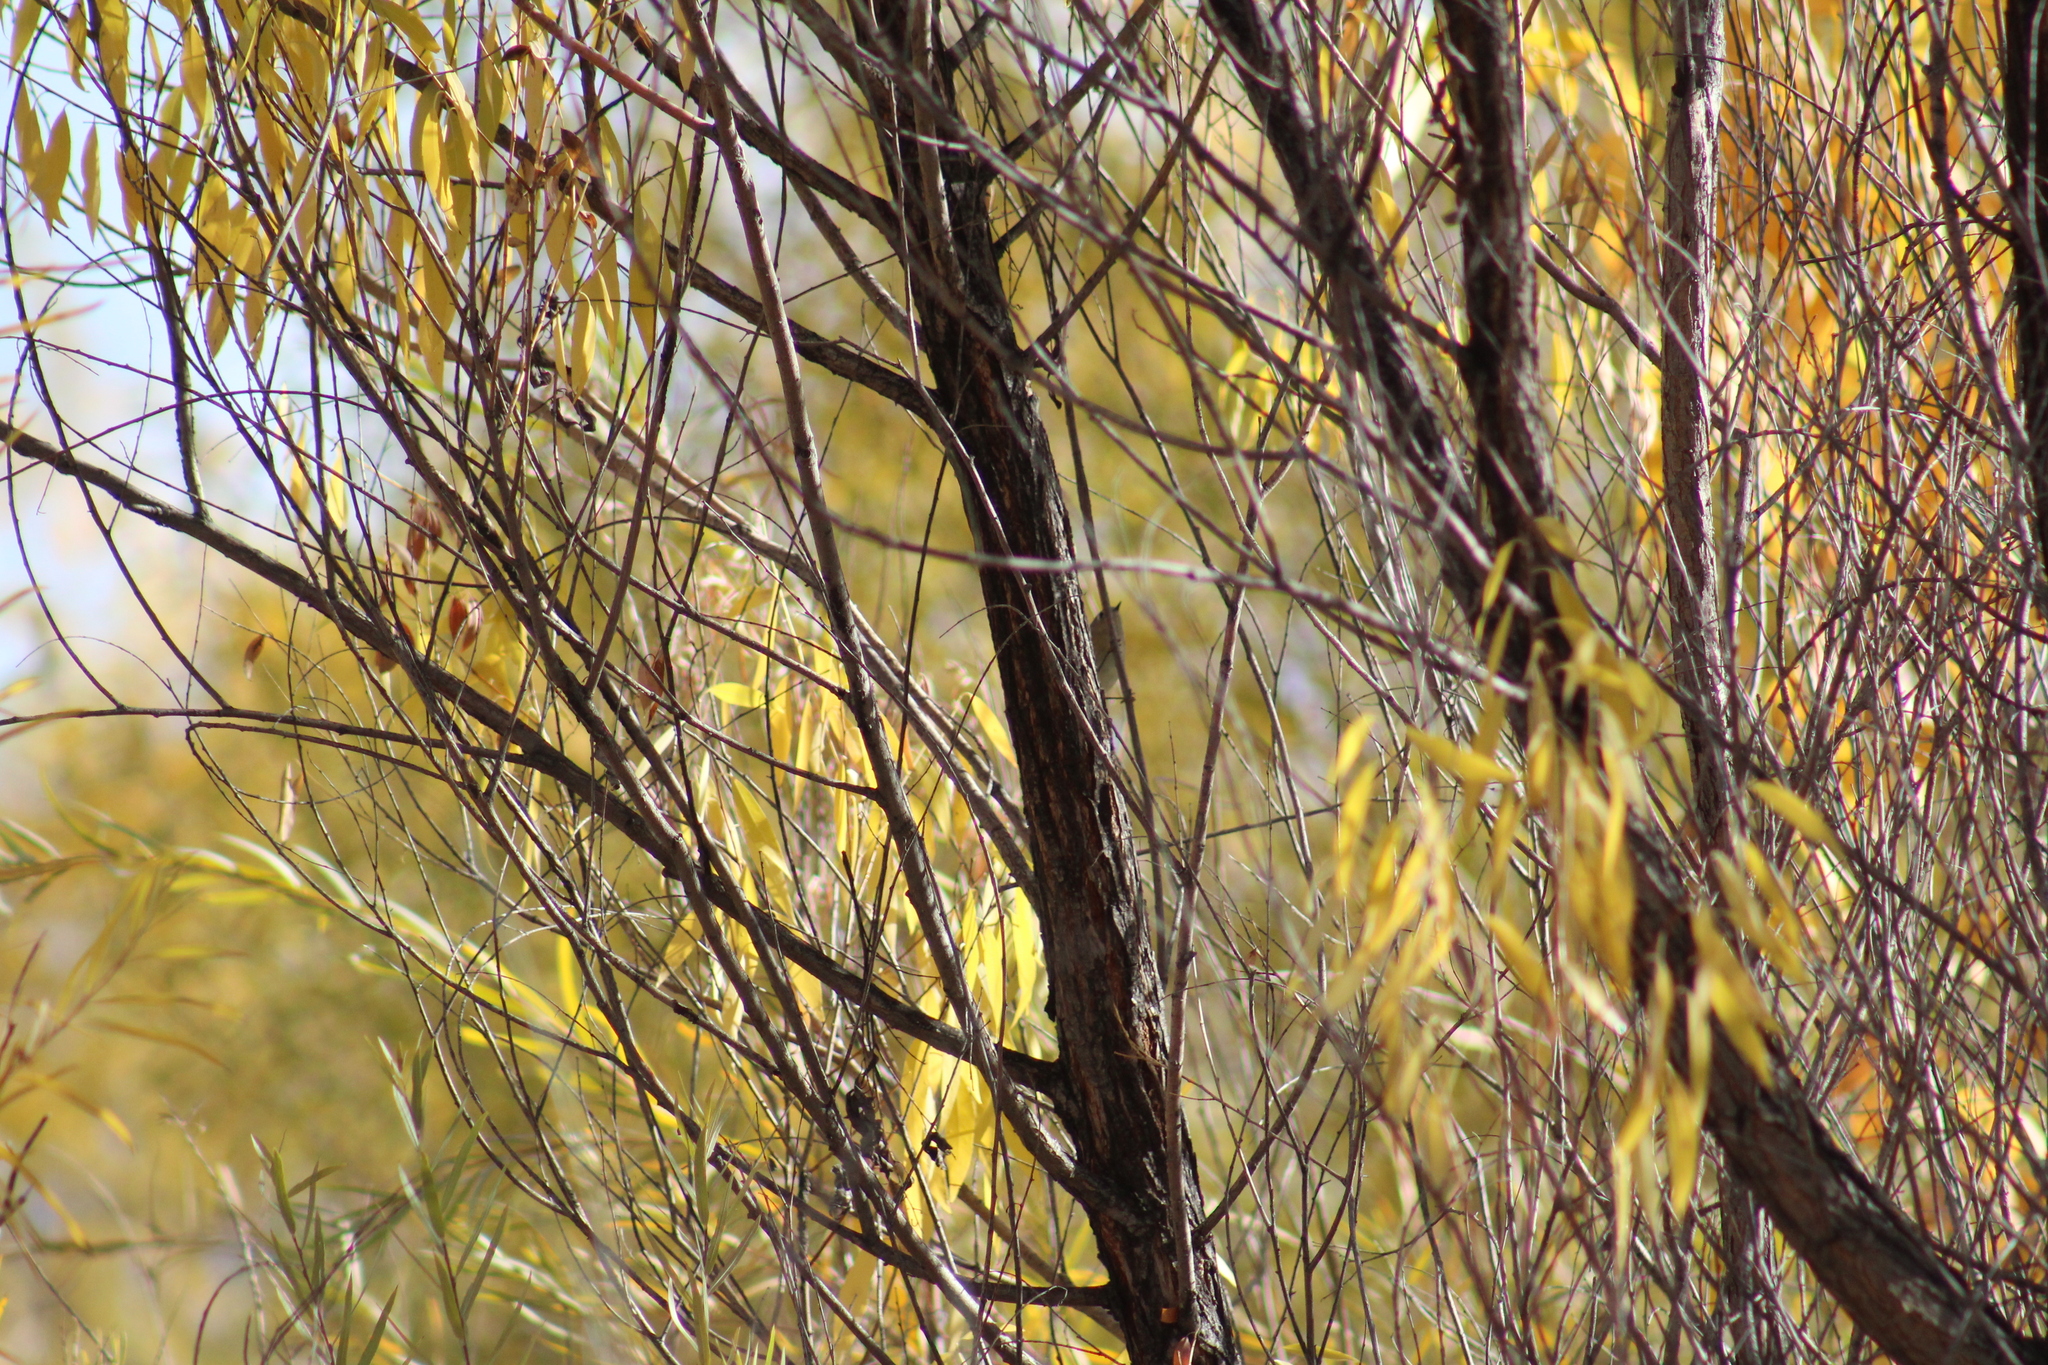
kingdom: Animalia
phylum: Chordata
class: Aves
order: Passeriformes
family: Regulidae
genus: Regulus
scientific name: Regulus calendula
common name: Ruby-crowned kinglet
